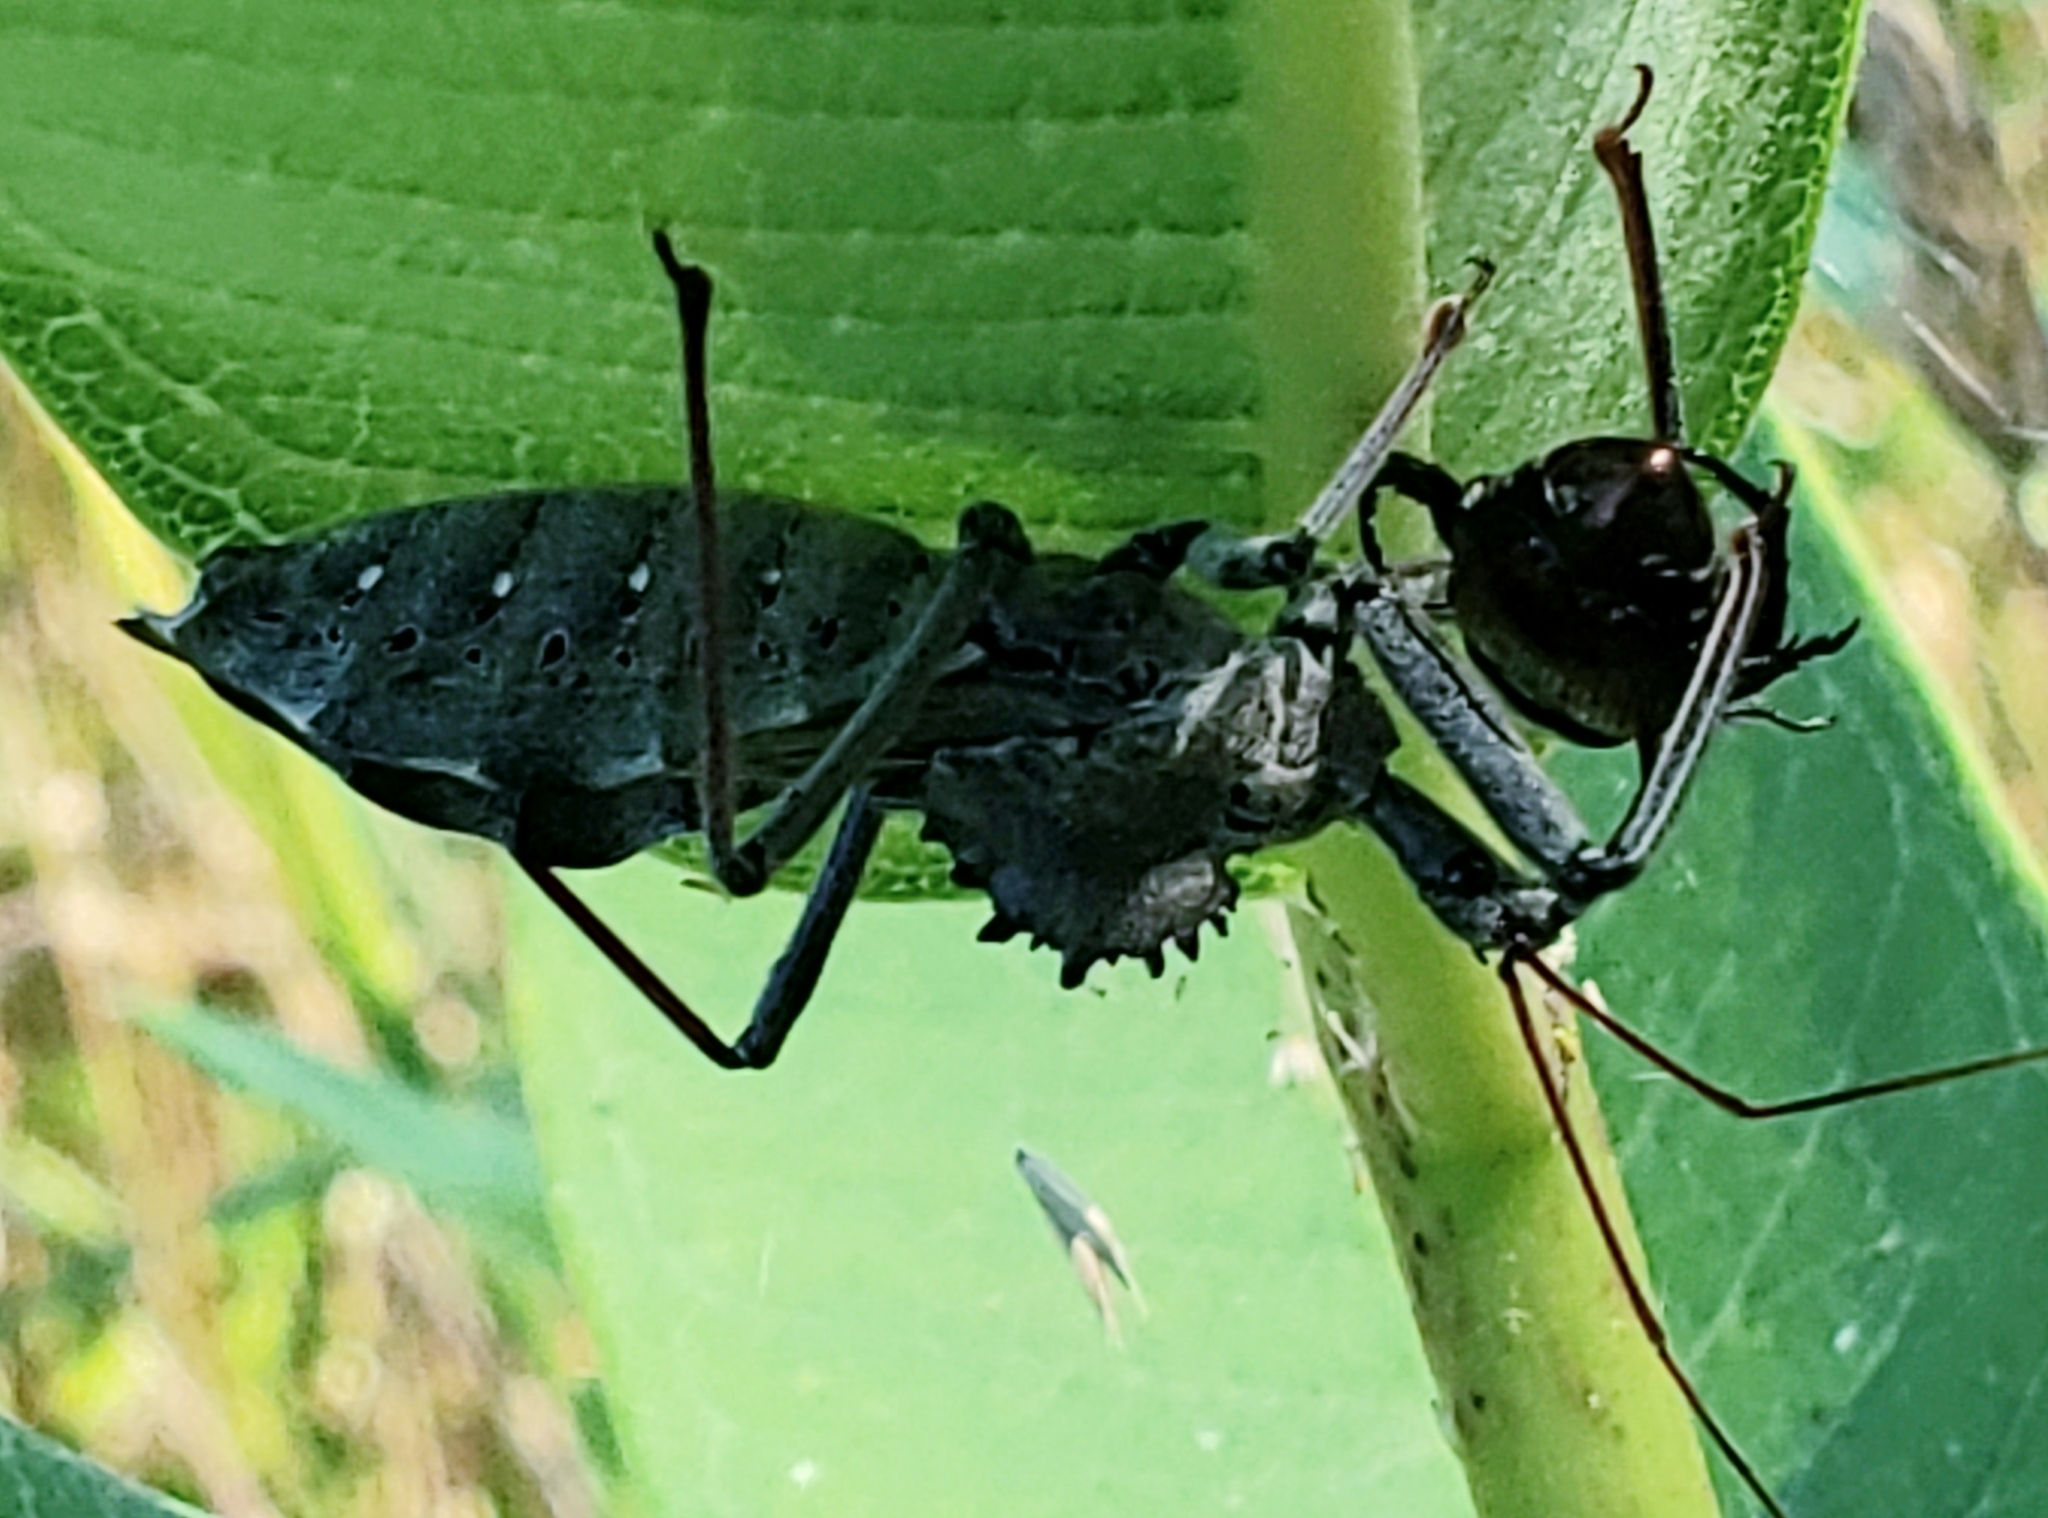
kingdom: Animalia
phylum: Arthropoda
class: Insecta
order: Hemiptera
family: Reduviidae
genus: Arilus
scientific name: Arilus cristatus
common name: North american wheel bug
